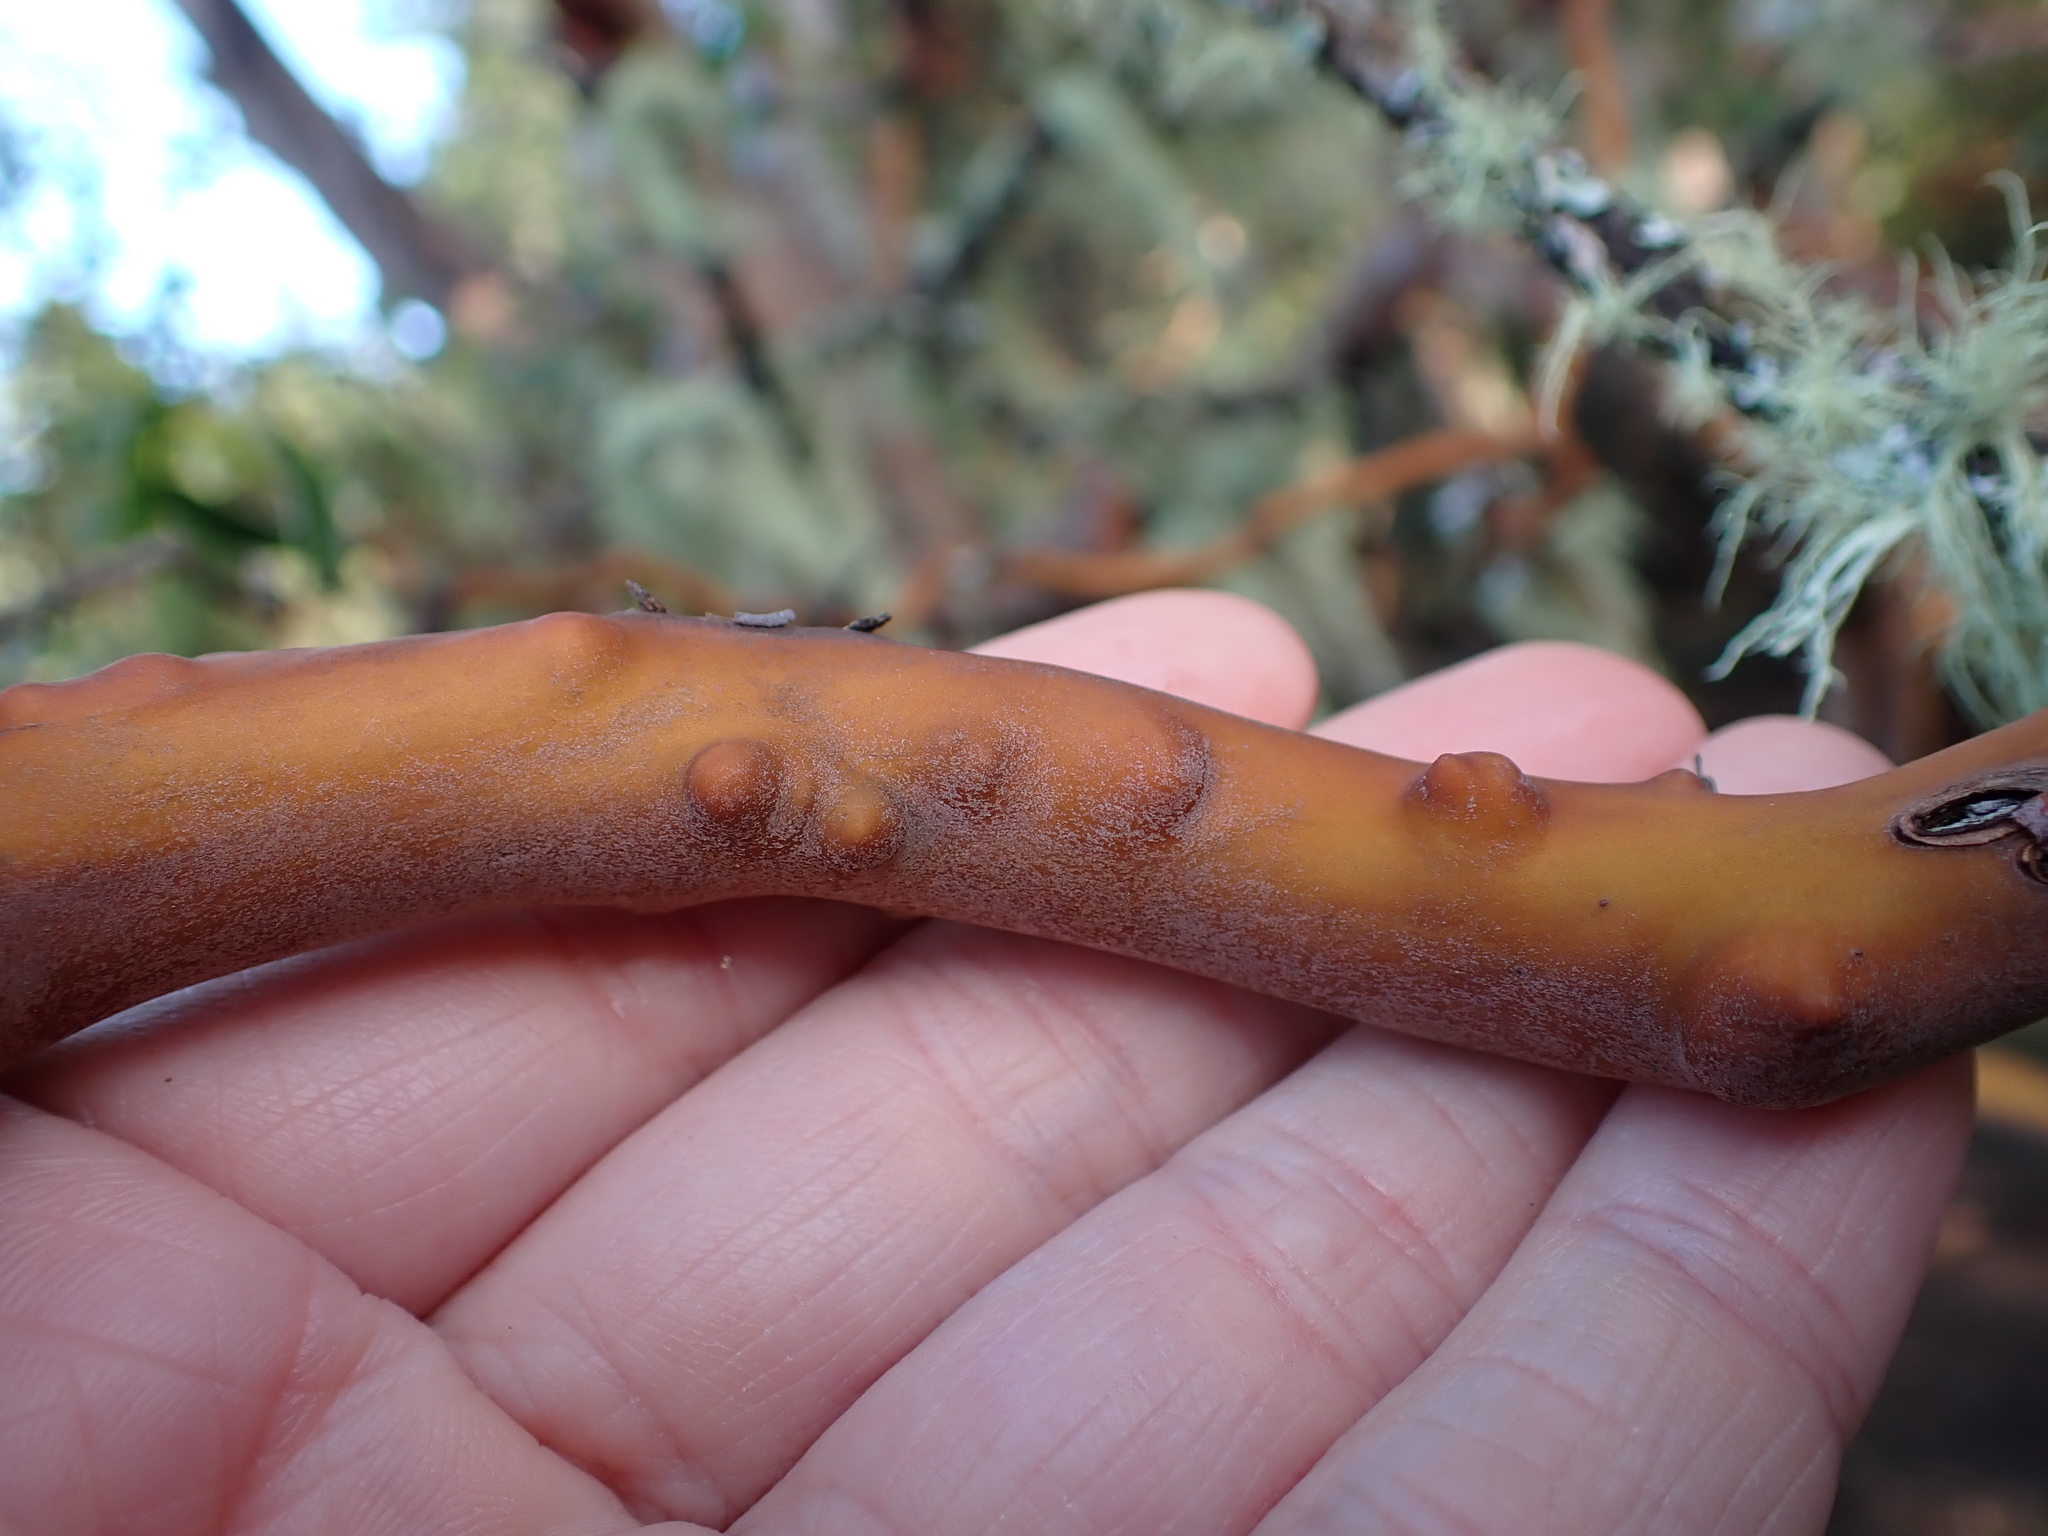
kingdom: Plantae
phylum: Tracheophyta
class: Magnoliopsida
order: Ericales
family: Ericaceae
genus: Arbutus
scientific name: Arbutus menziesii
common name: Pacific madrone
